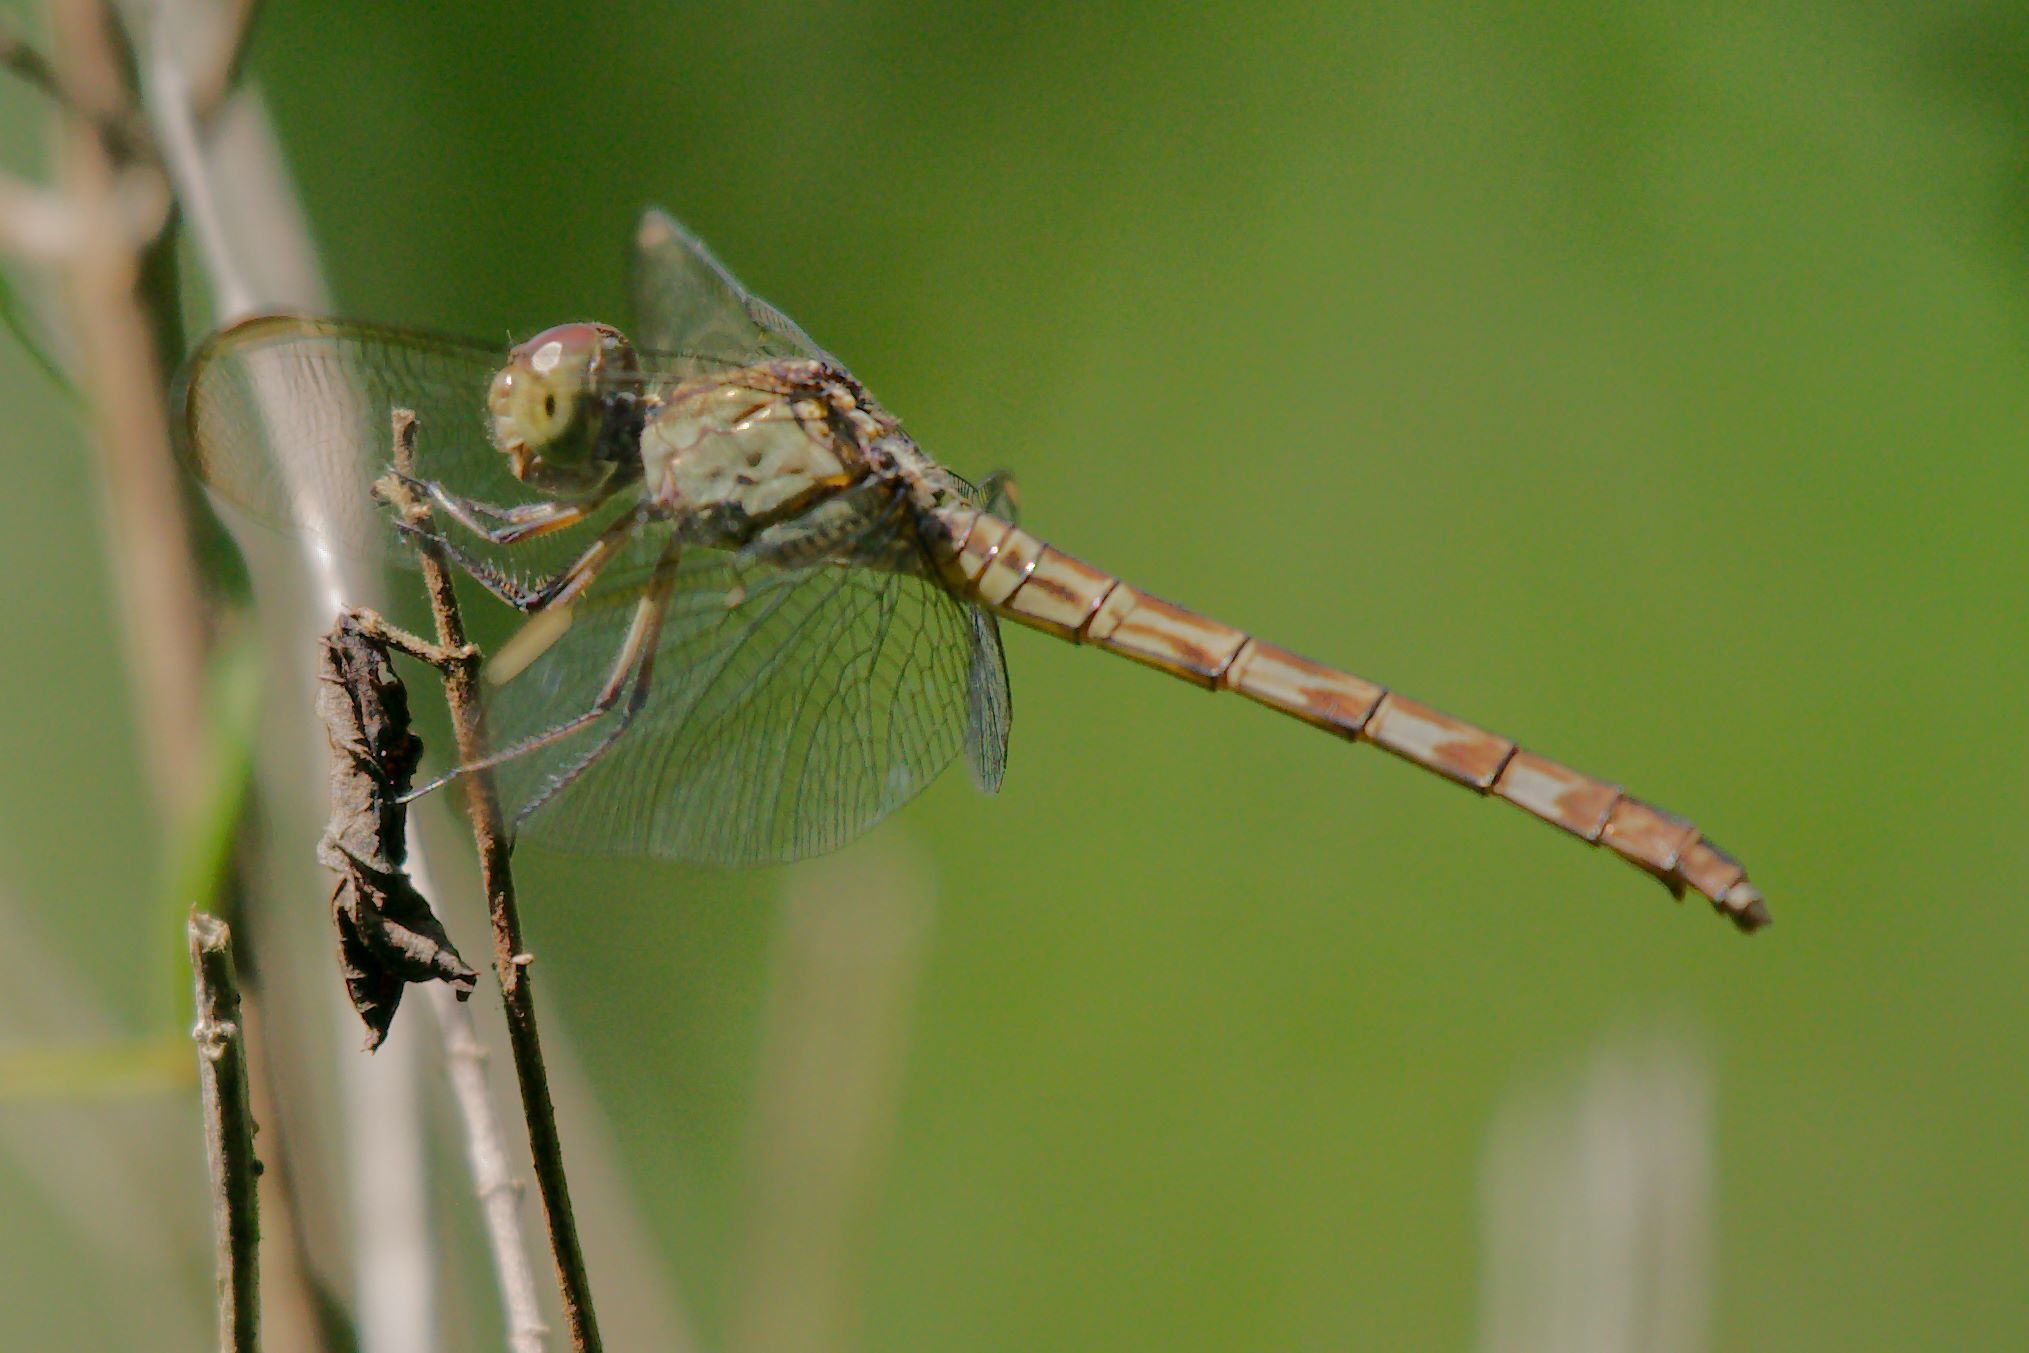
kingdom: Animalia
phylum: Arthropoda
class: Insecta
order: Odonata
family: Libellulidae
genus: Erythrodiplax
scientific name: Erythrodiplax umbrata
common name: Band-winged dragonlet
